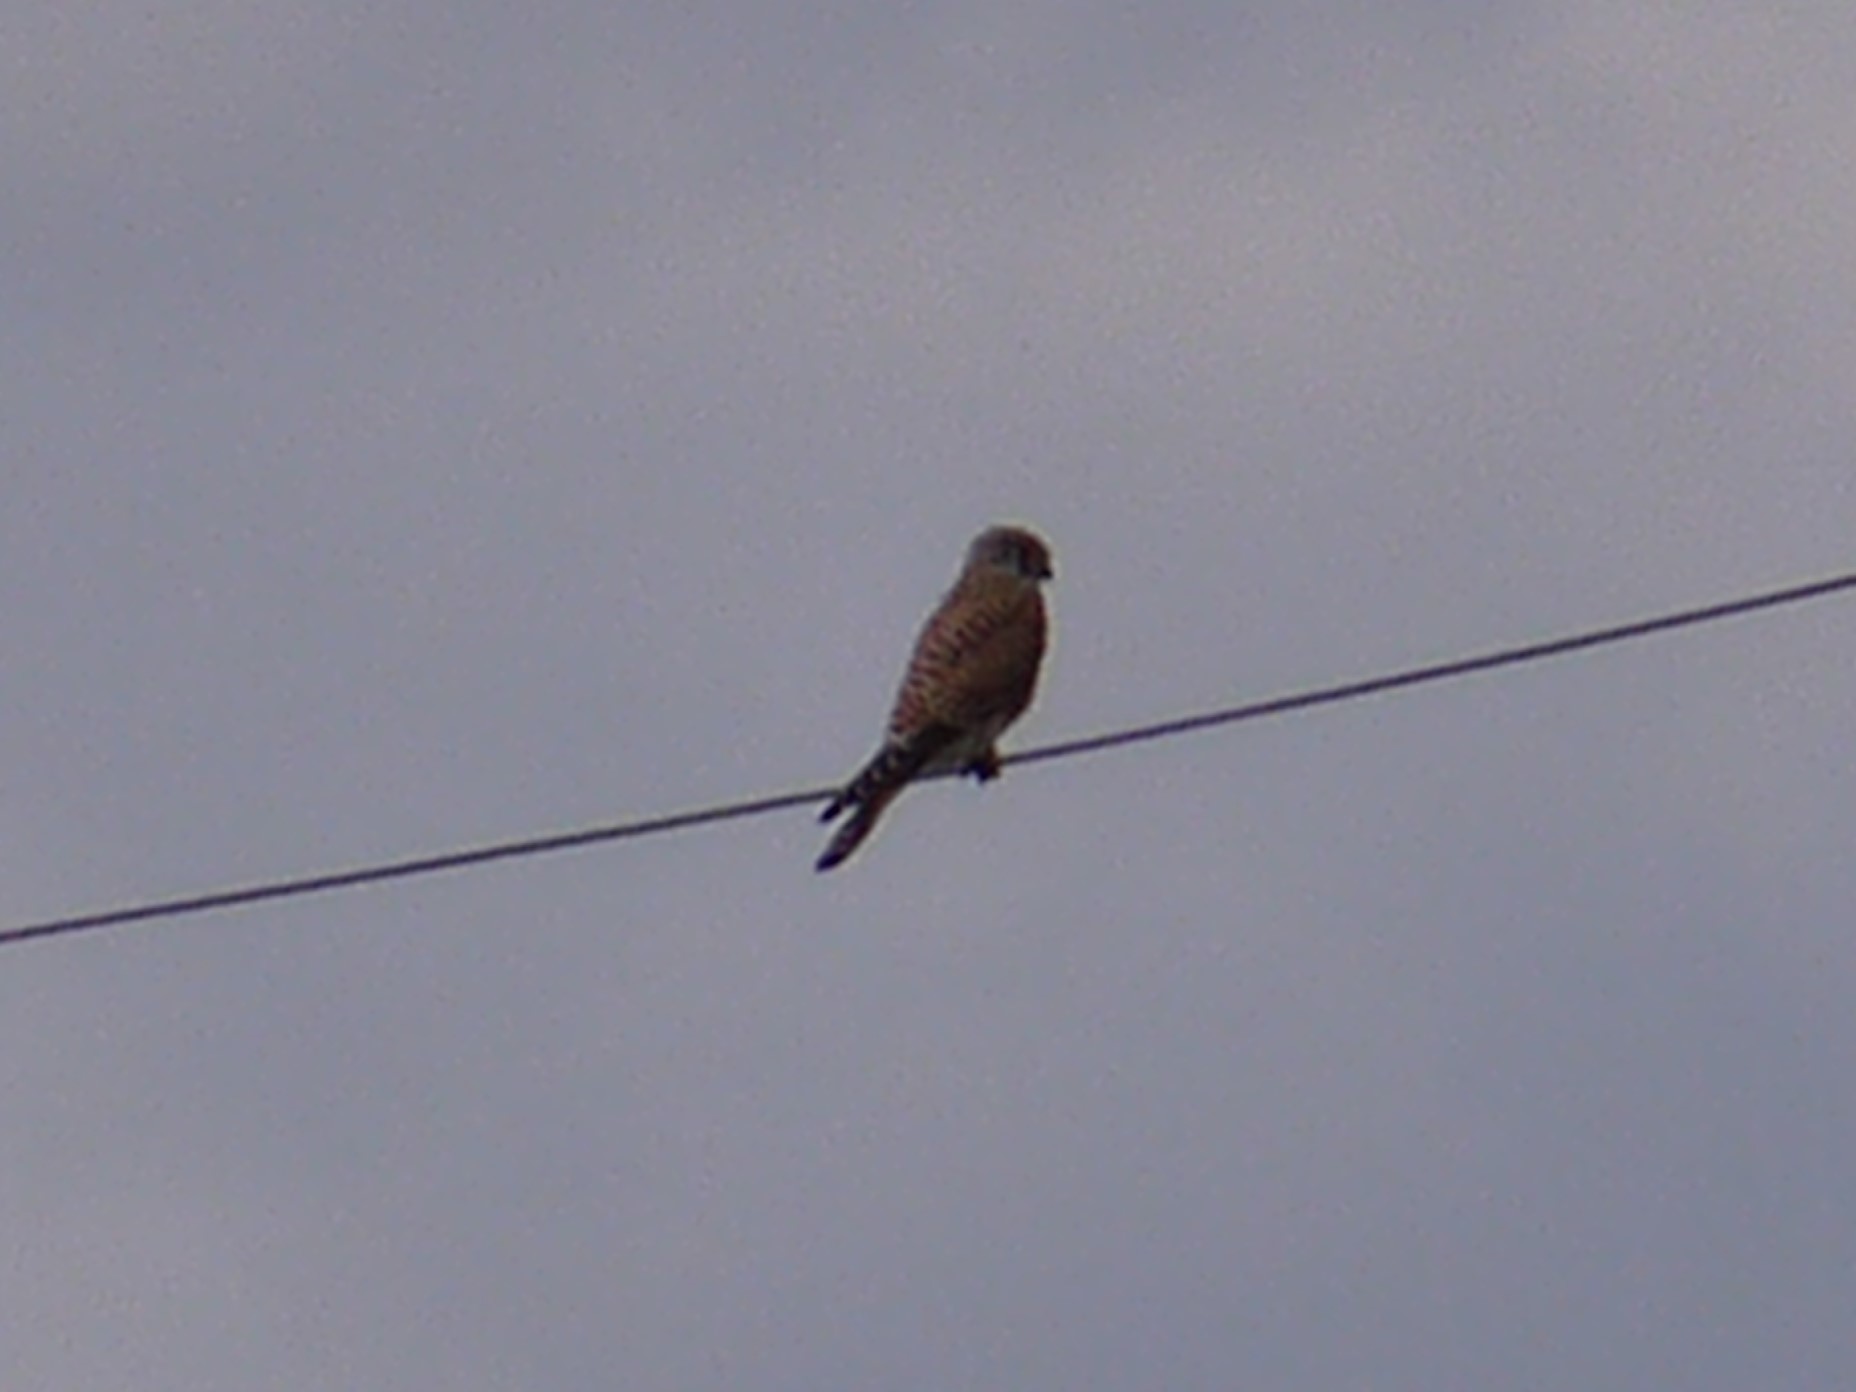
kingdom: Animalia
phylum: Chordata
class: Aves
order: Falconiformes
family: Falconidae
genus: Falco
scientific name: Falco tinnunculus
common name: Common kestrel
